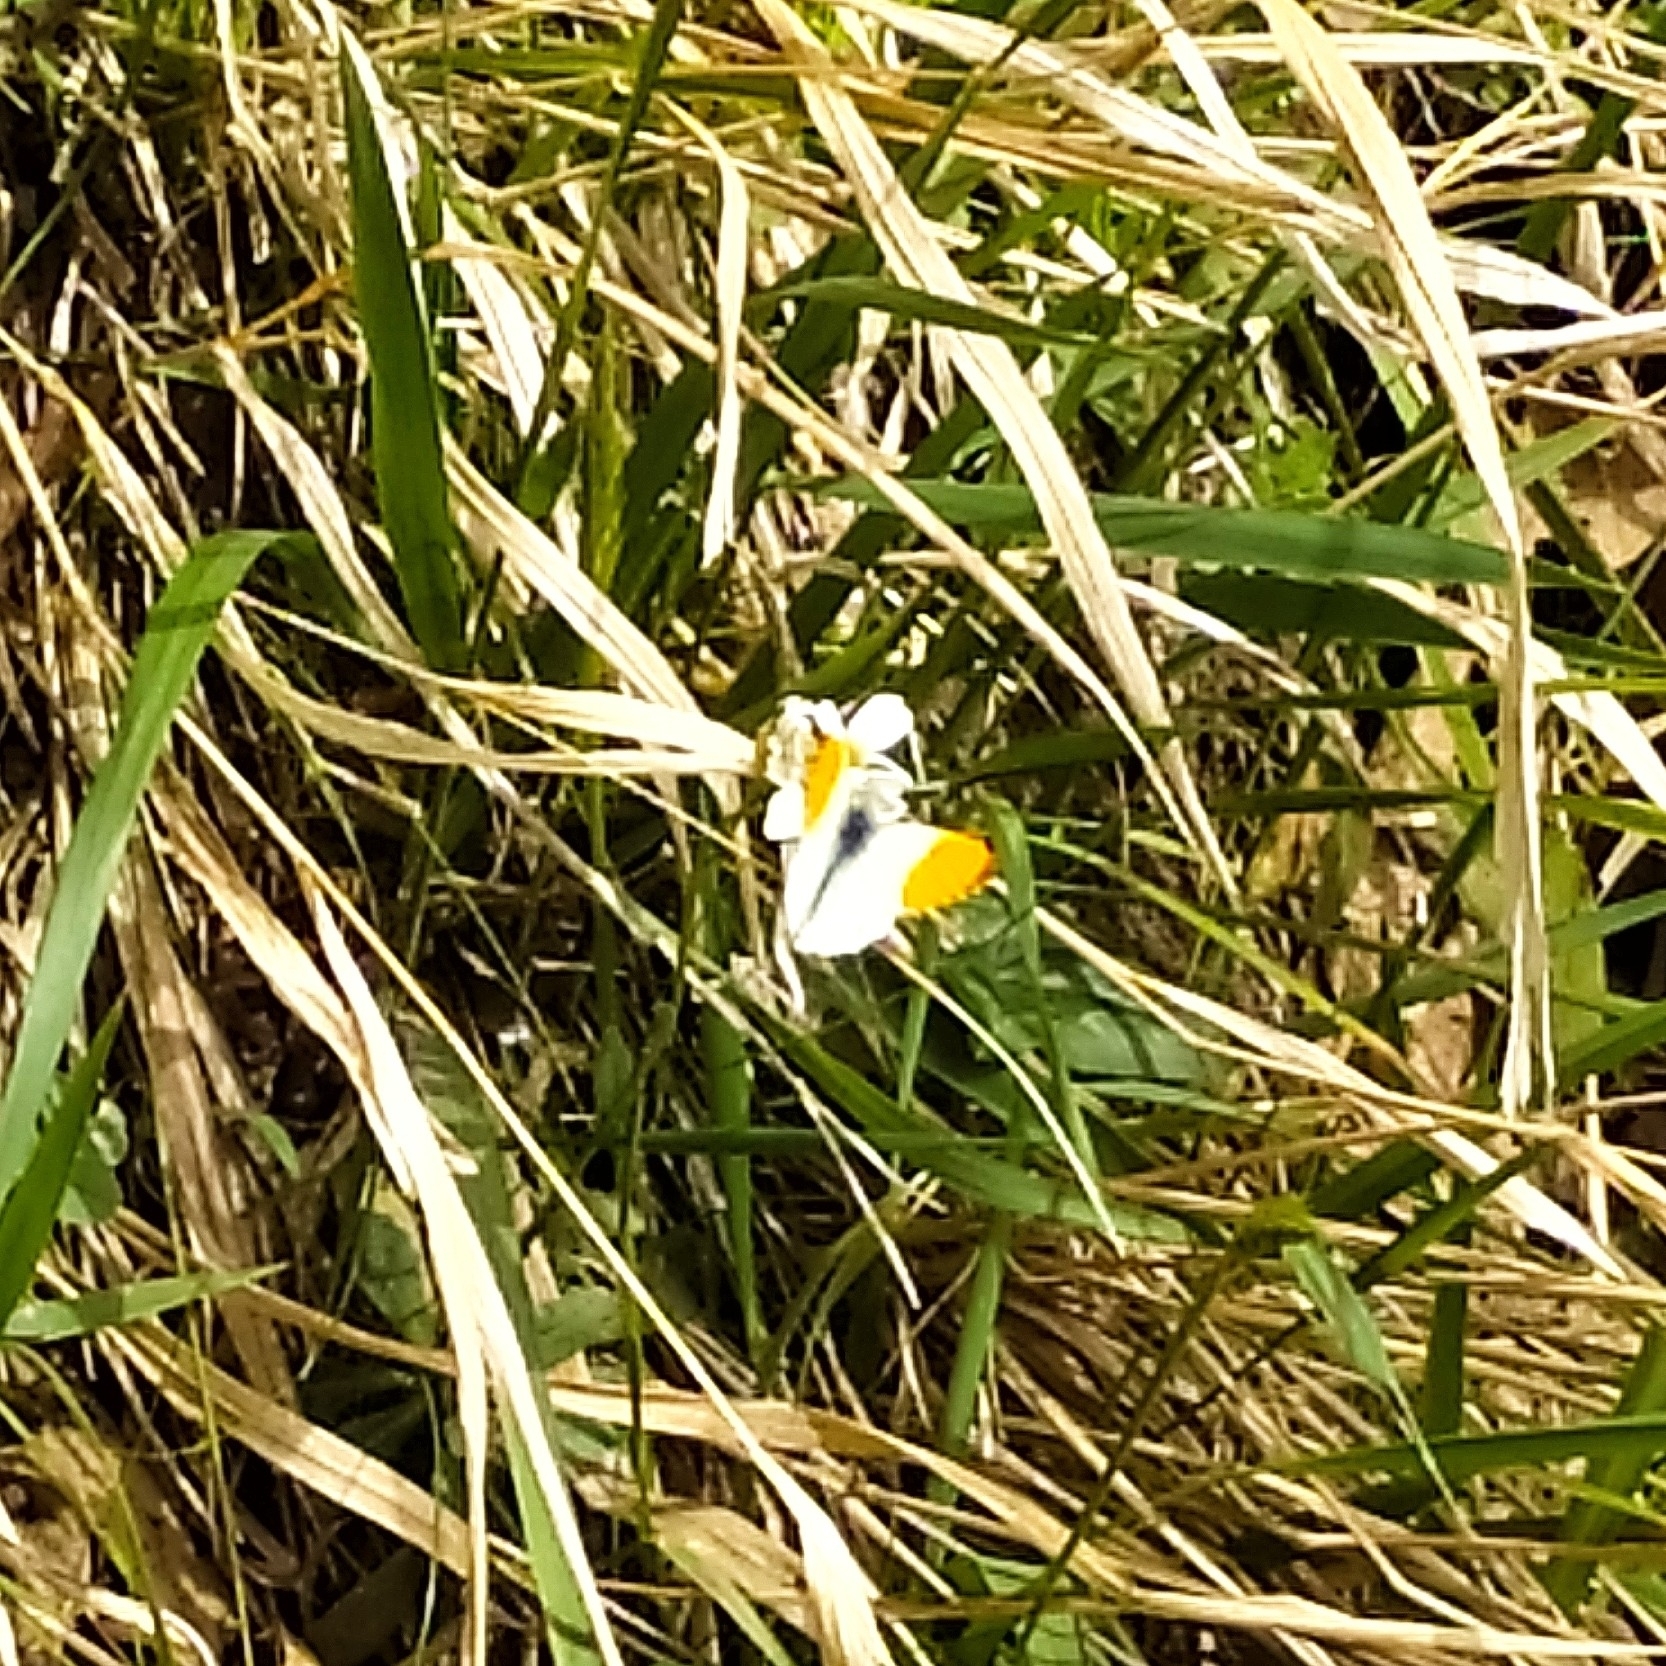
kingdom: Animalia
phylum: Arthropoda
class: Insecta
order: Lepidoptera
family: Pieridae
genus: Anthocharis
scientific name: Anthocharis cardamines
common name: Orange-tip
